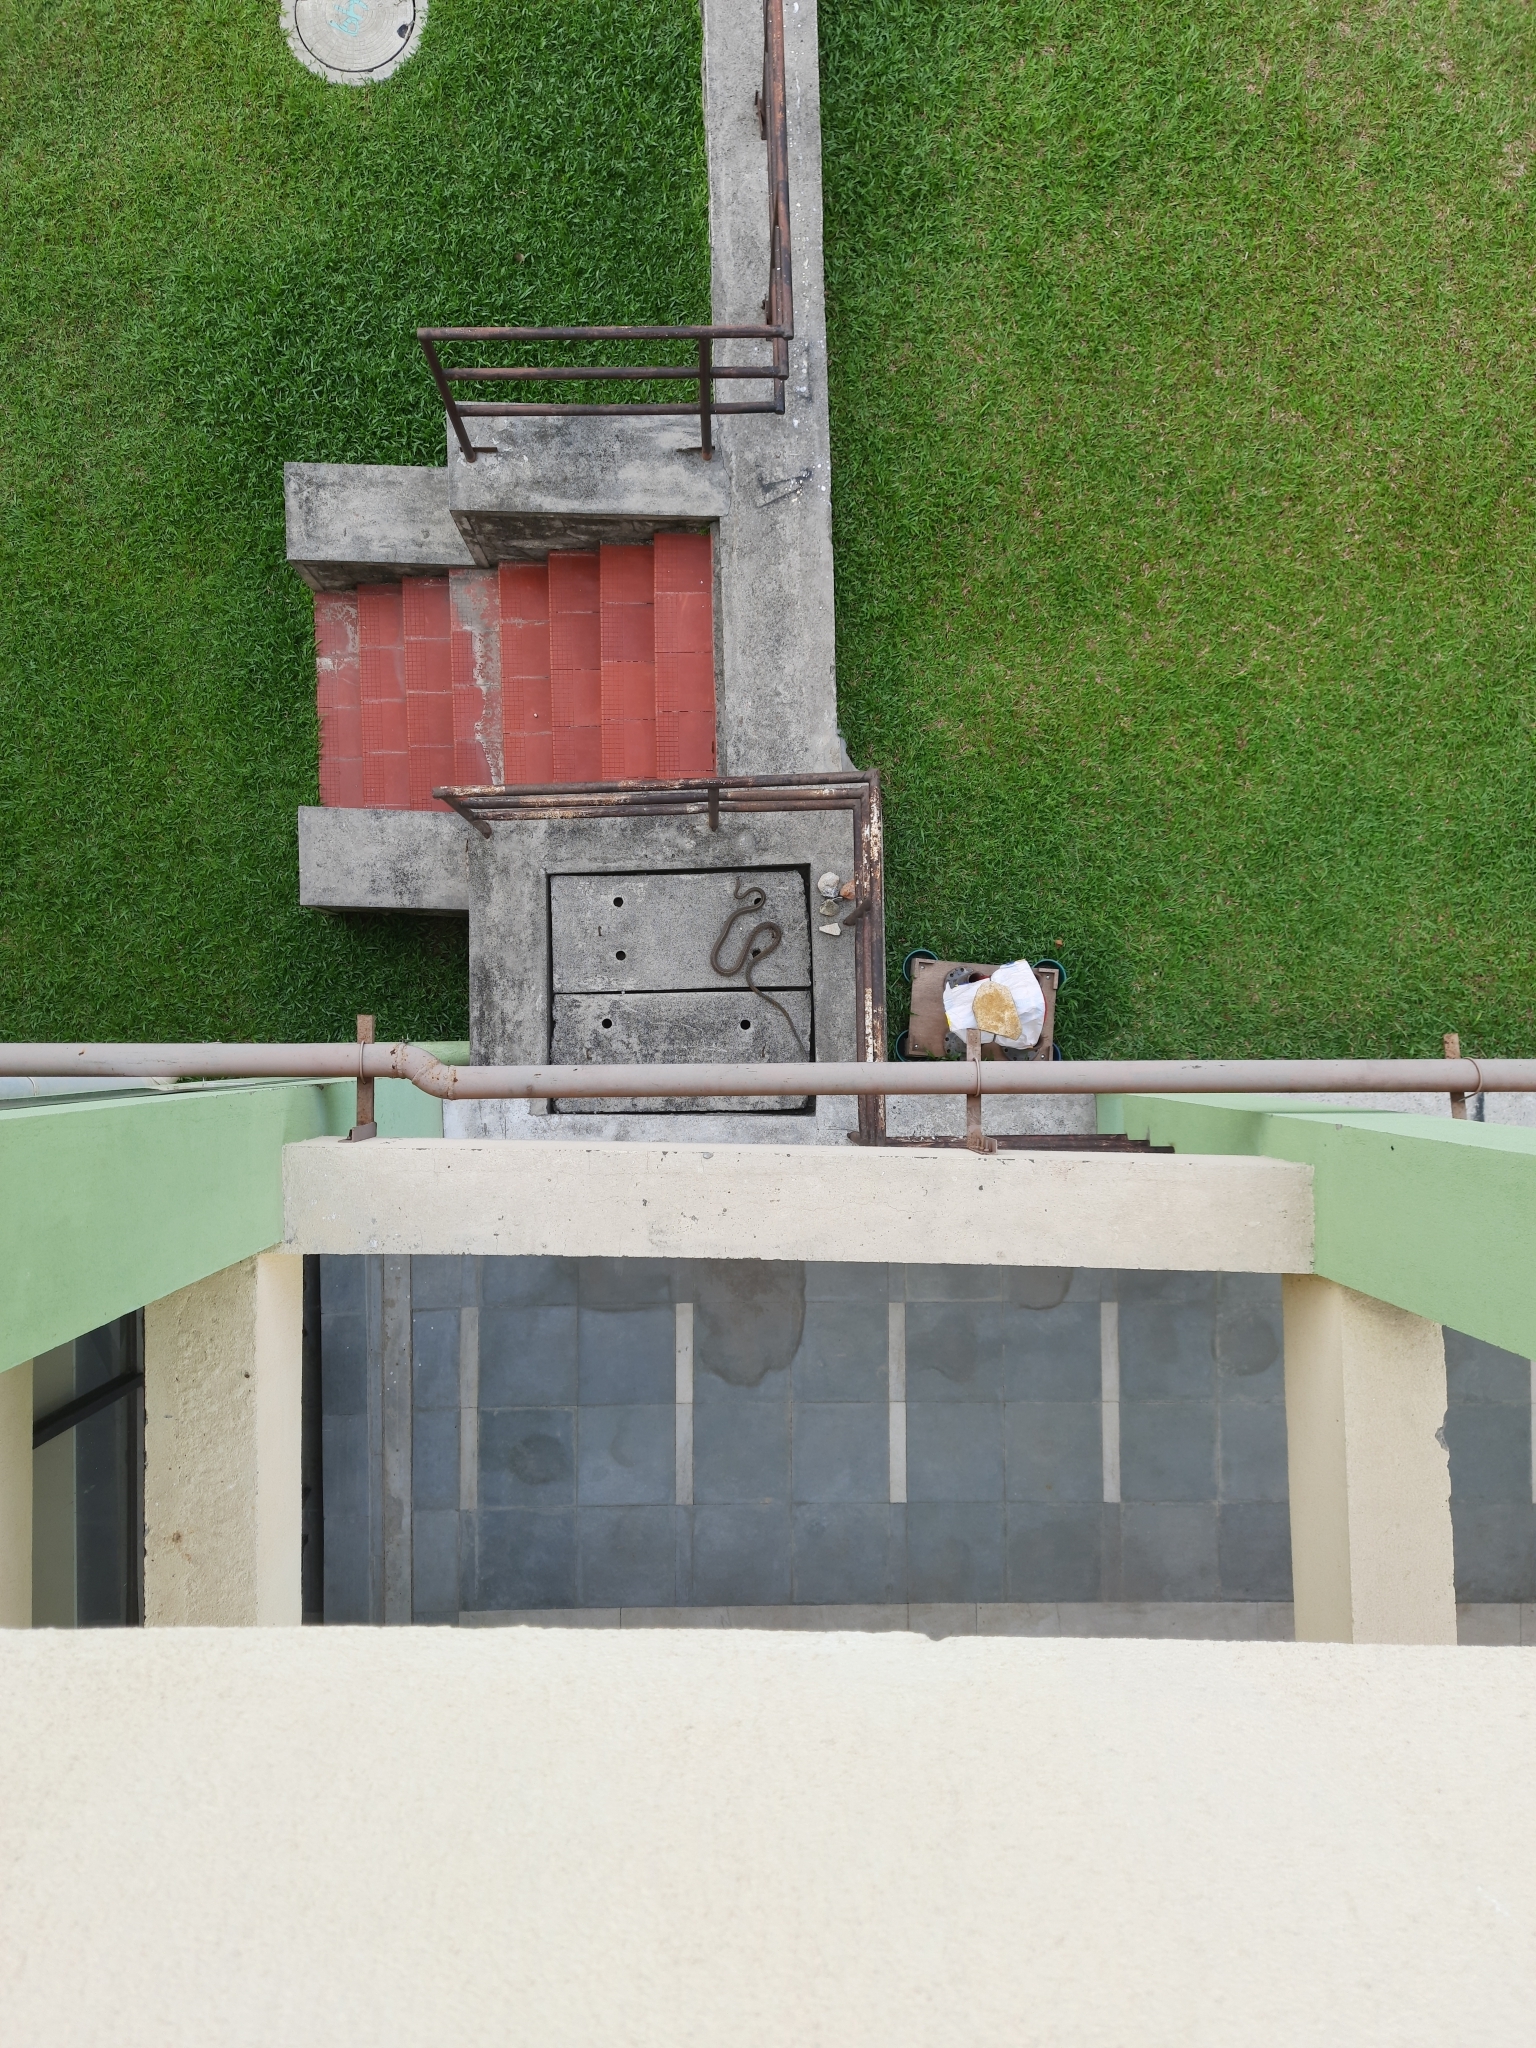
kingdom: Animalia
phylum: Chordata
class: Squamata
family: Colubridae
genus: Ptyas
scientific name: Ptyas mucosa
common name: Oriental ratsnake
